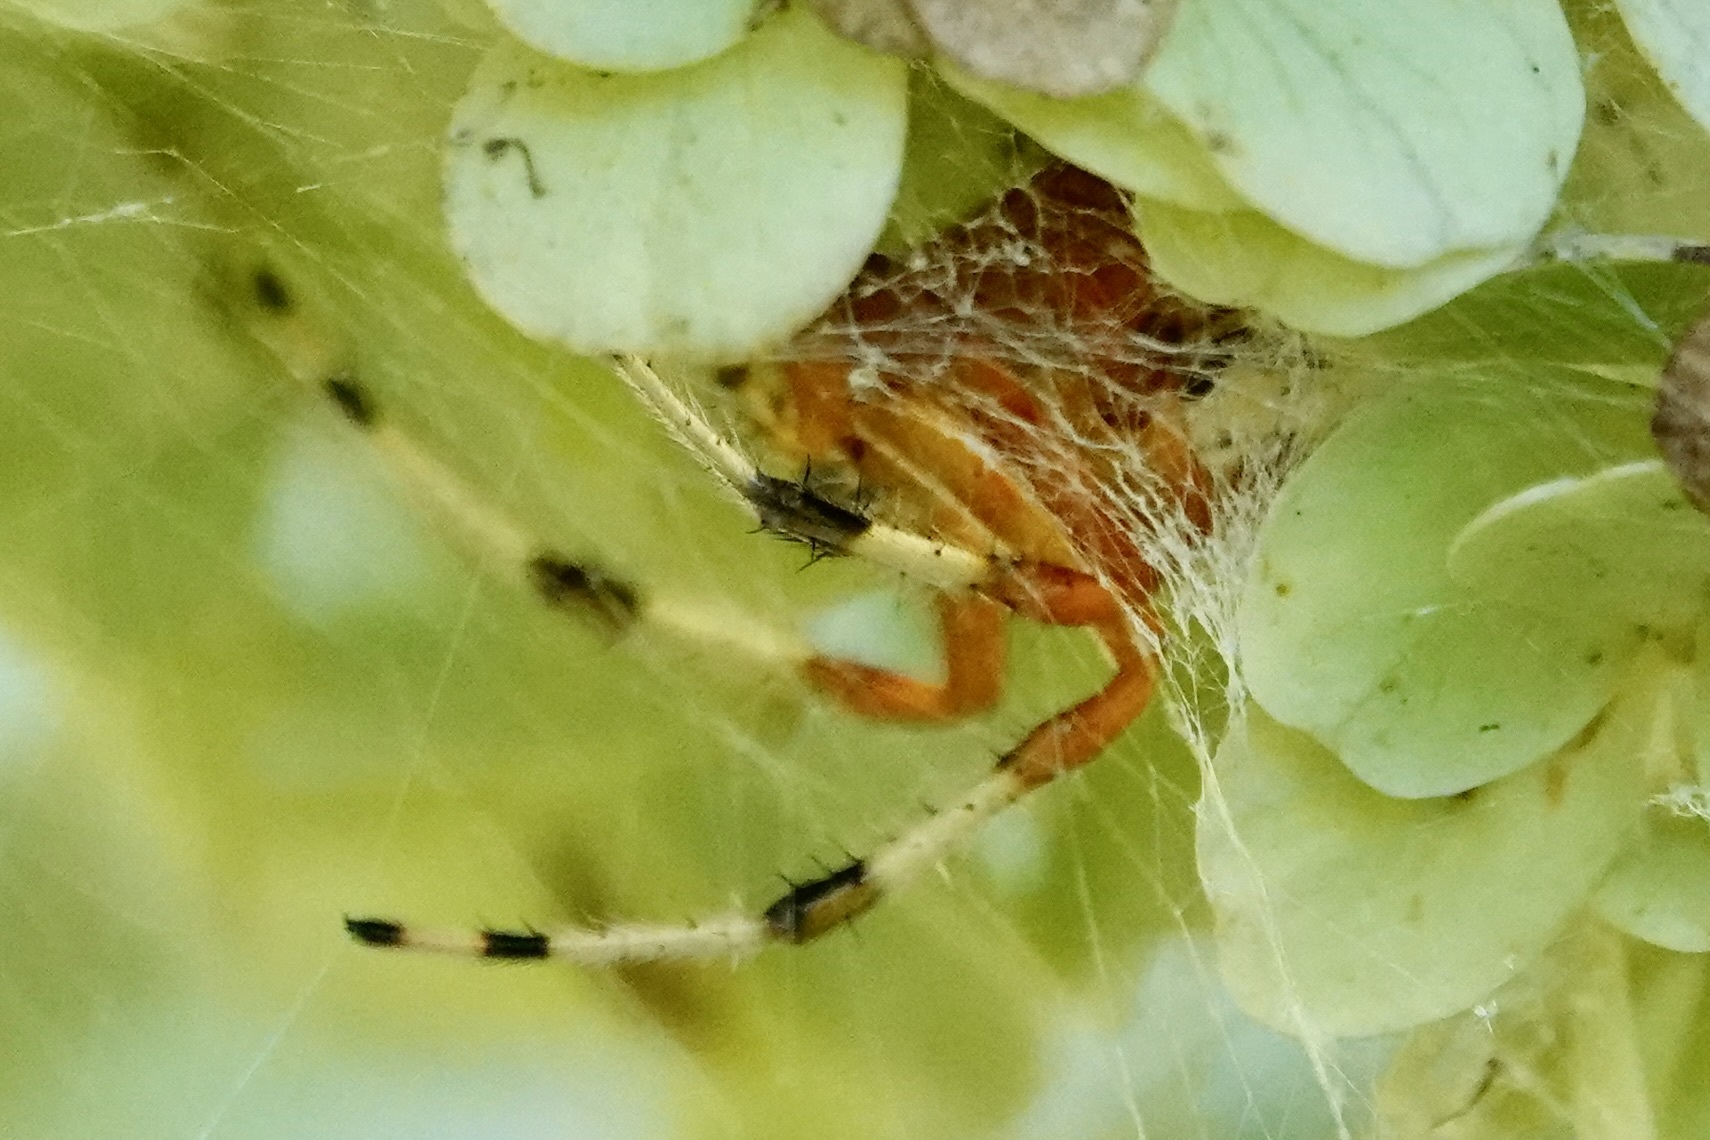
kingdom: Animalia
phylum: Arthropoda
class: Arachnida
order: Araneae
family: Araneidae
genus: Araneus
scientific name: Araneus marmoreus
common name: Marbled orbweaver
